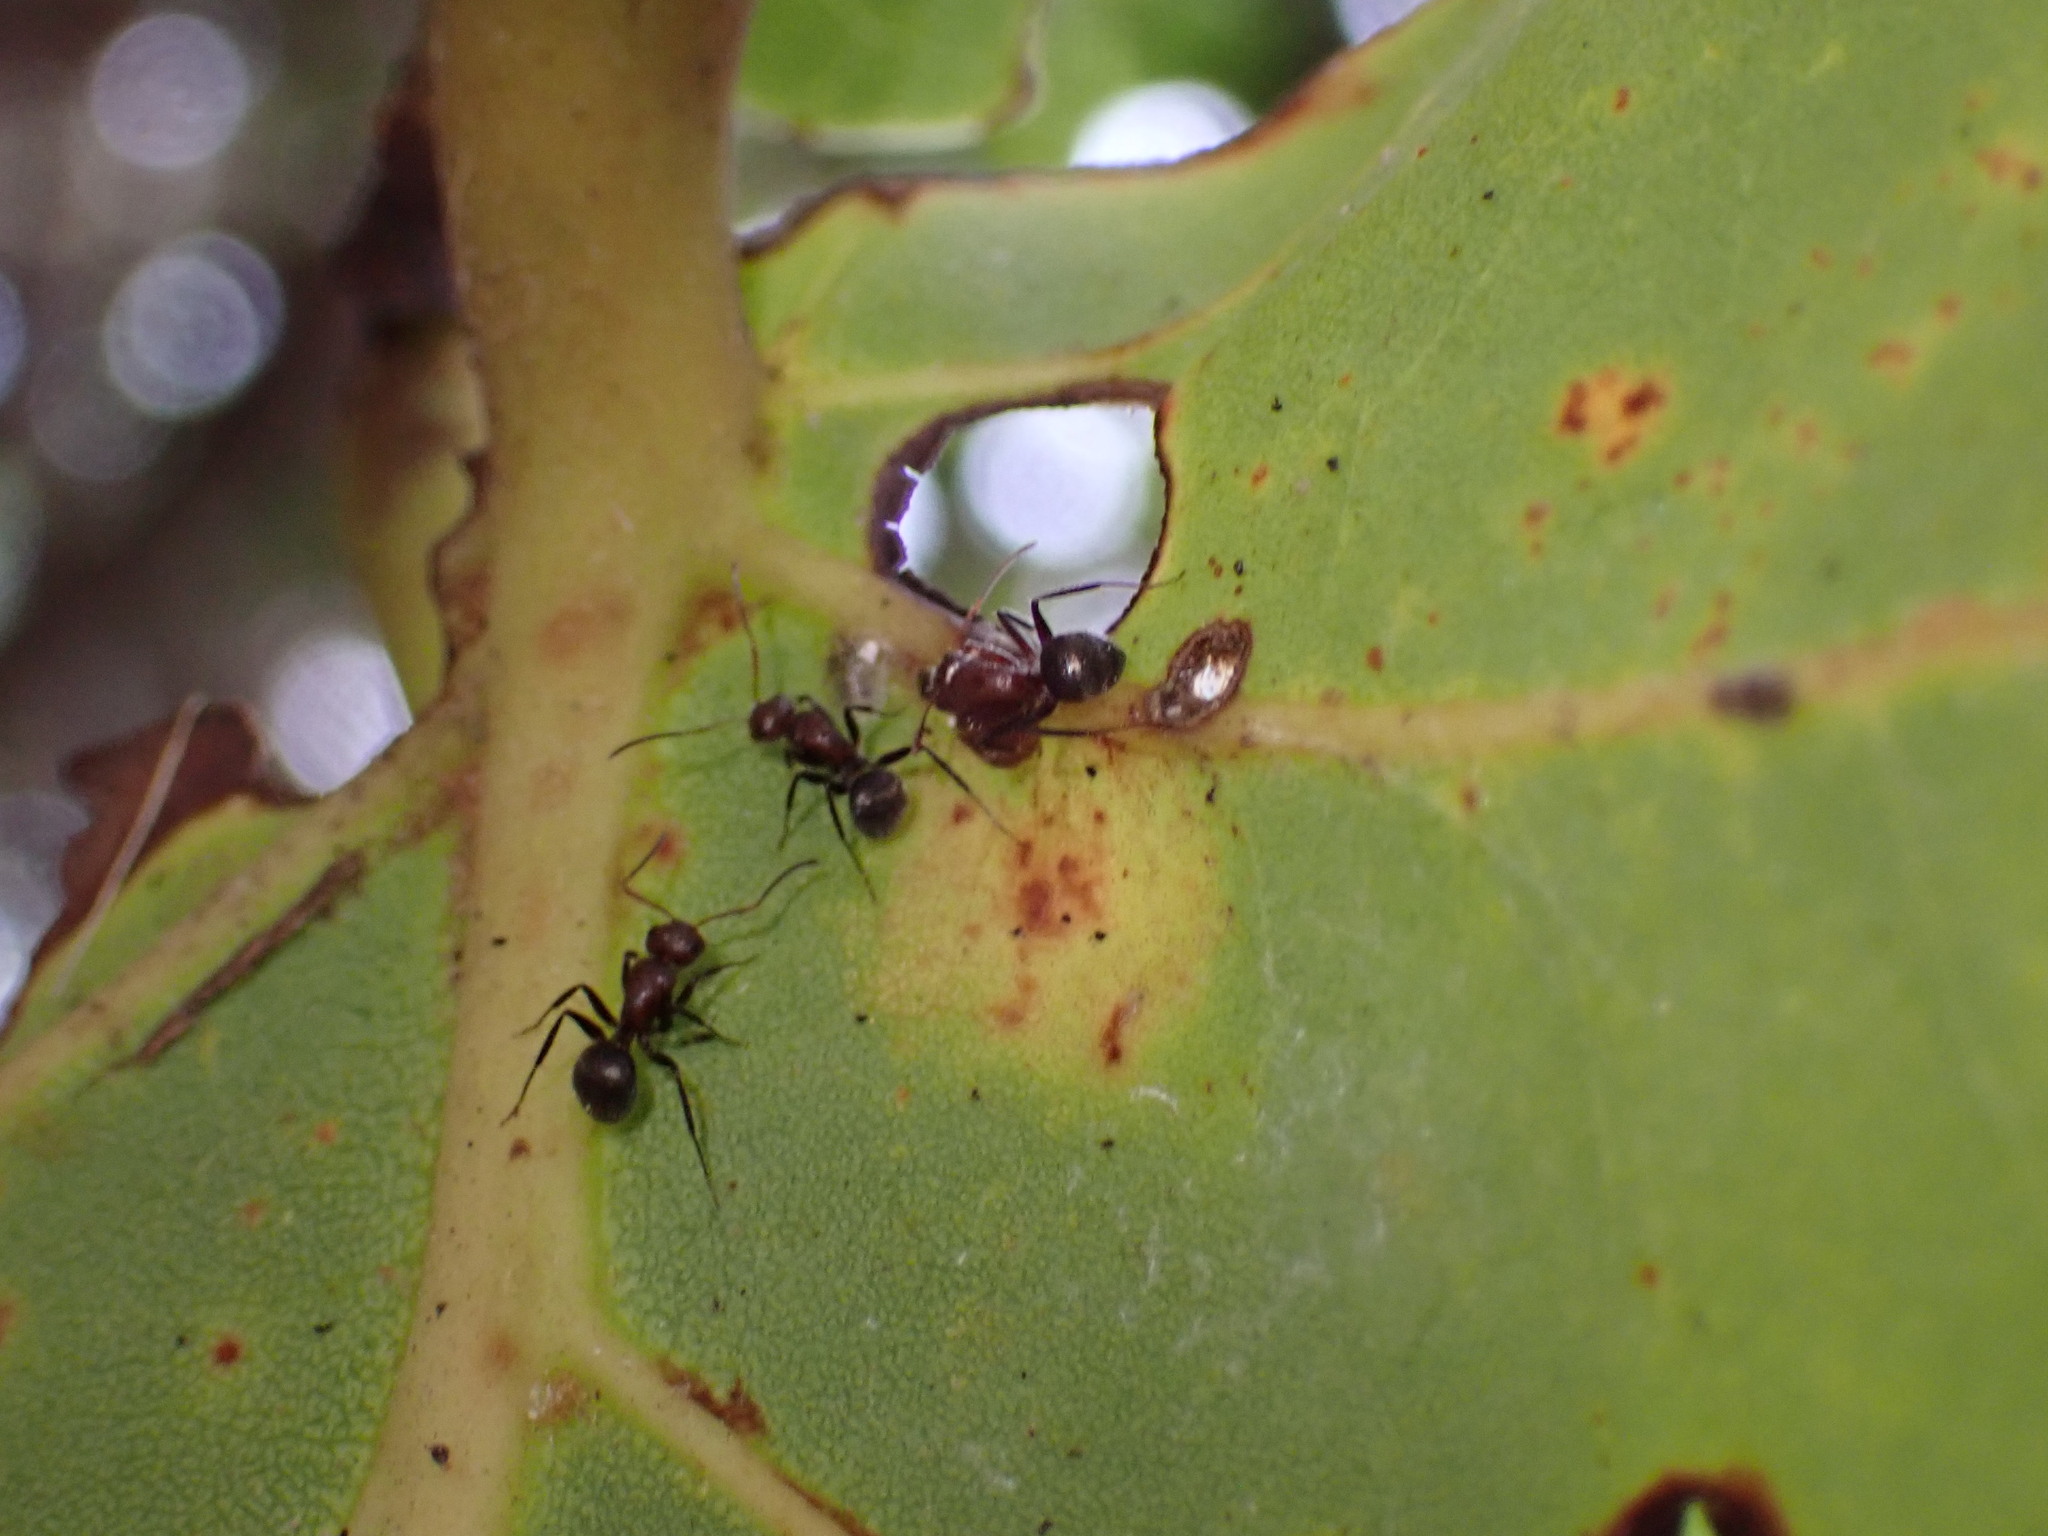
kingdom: Animalia
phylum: Arthropoda
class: Insecta
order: Hymenoptera
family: Formicidae
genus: Camponotus
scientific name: Camponotus planatus
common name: Compact carpenter ant
